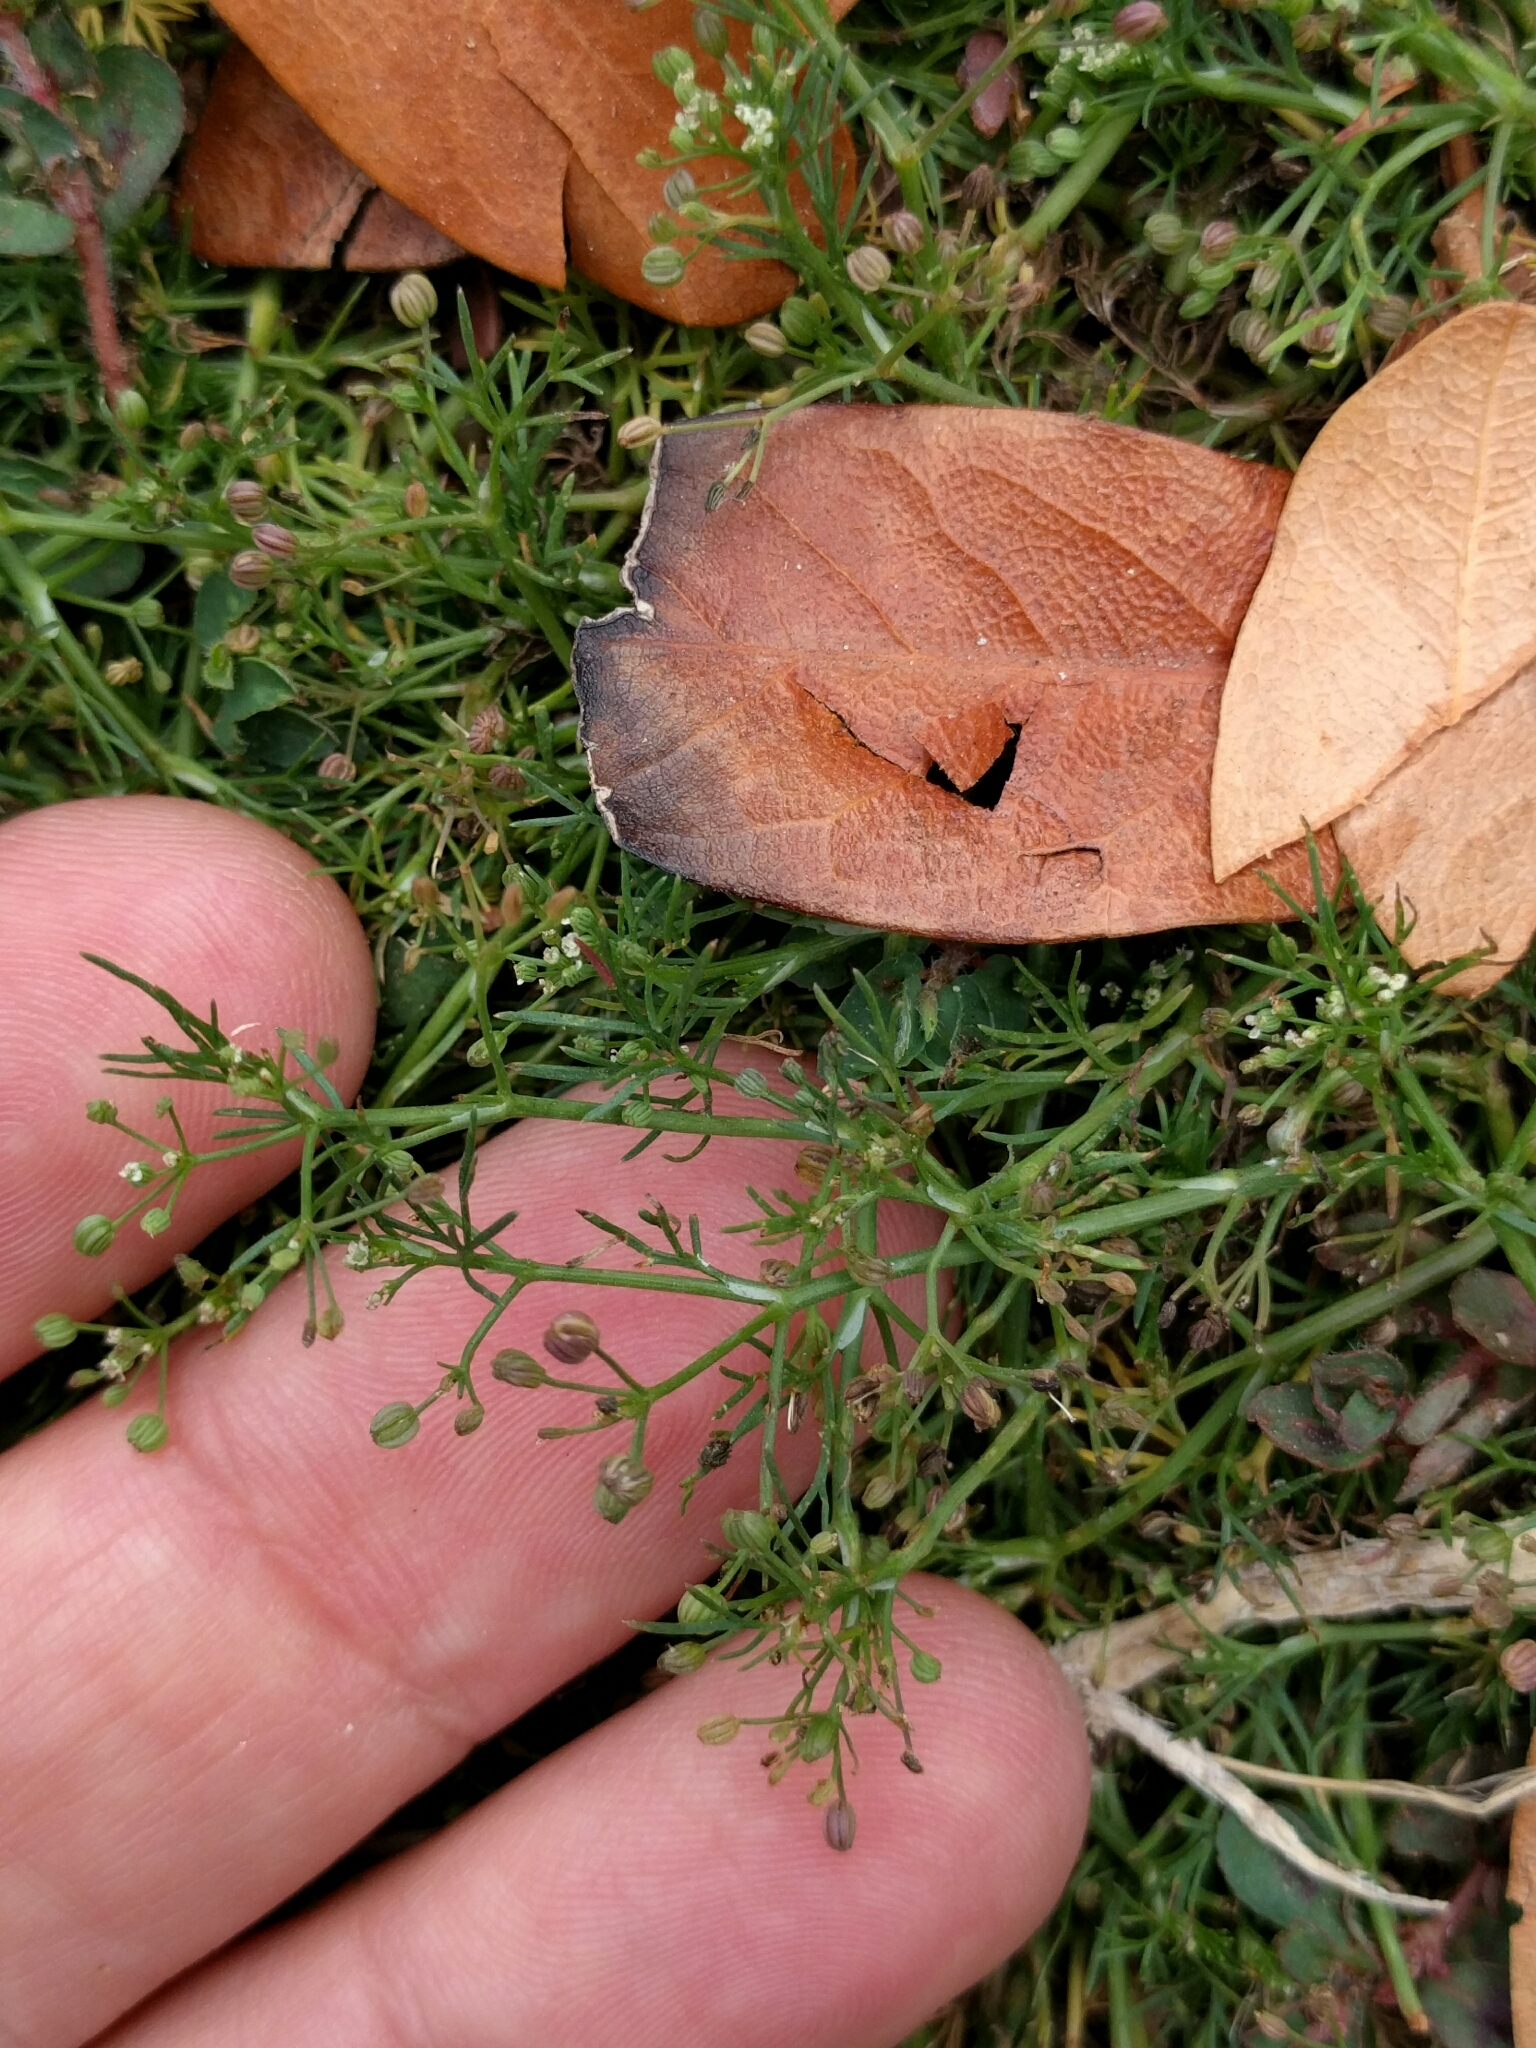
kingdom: Plantae
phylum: Tracheophyta
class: Magnoliopsida
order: Apiales
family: Apiaceae
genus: Cyclospermum
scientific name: Cyclospermum leptophyllum
